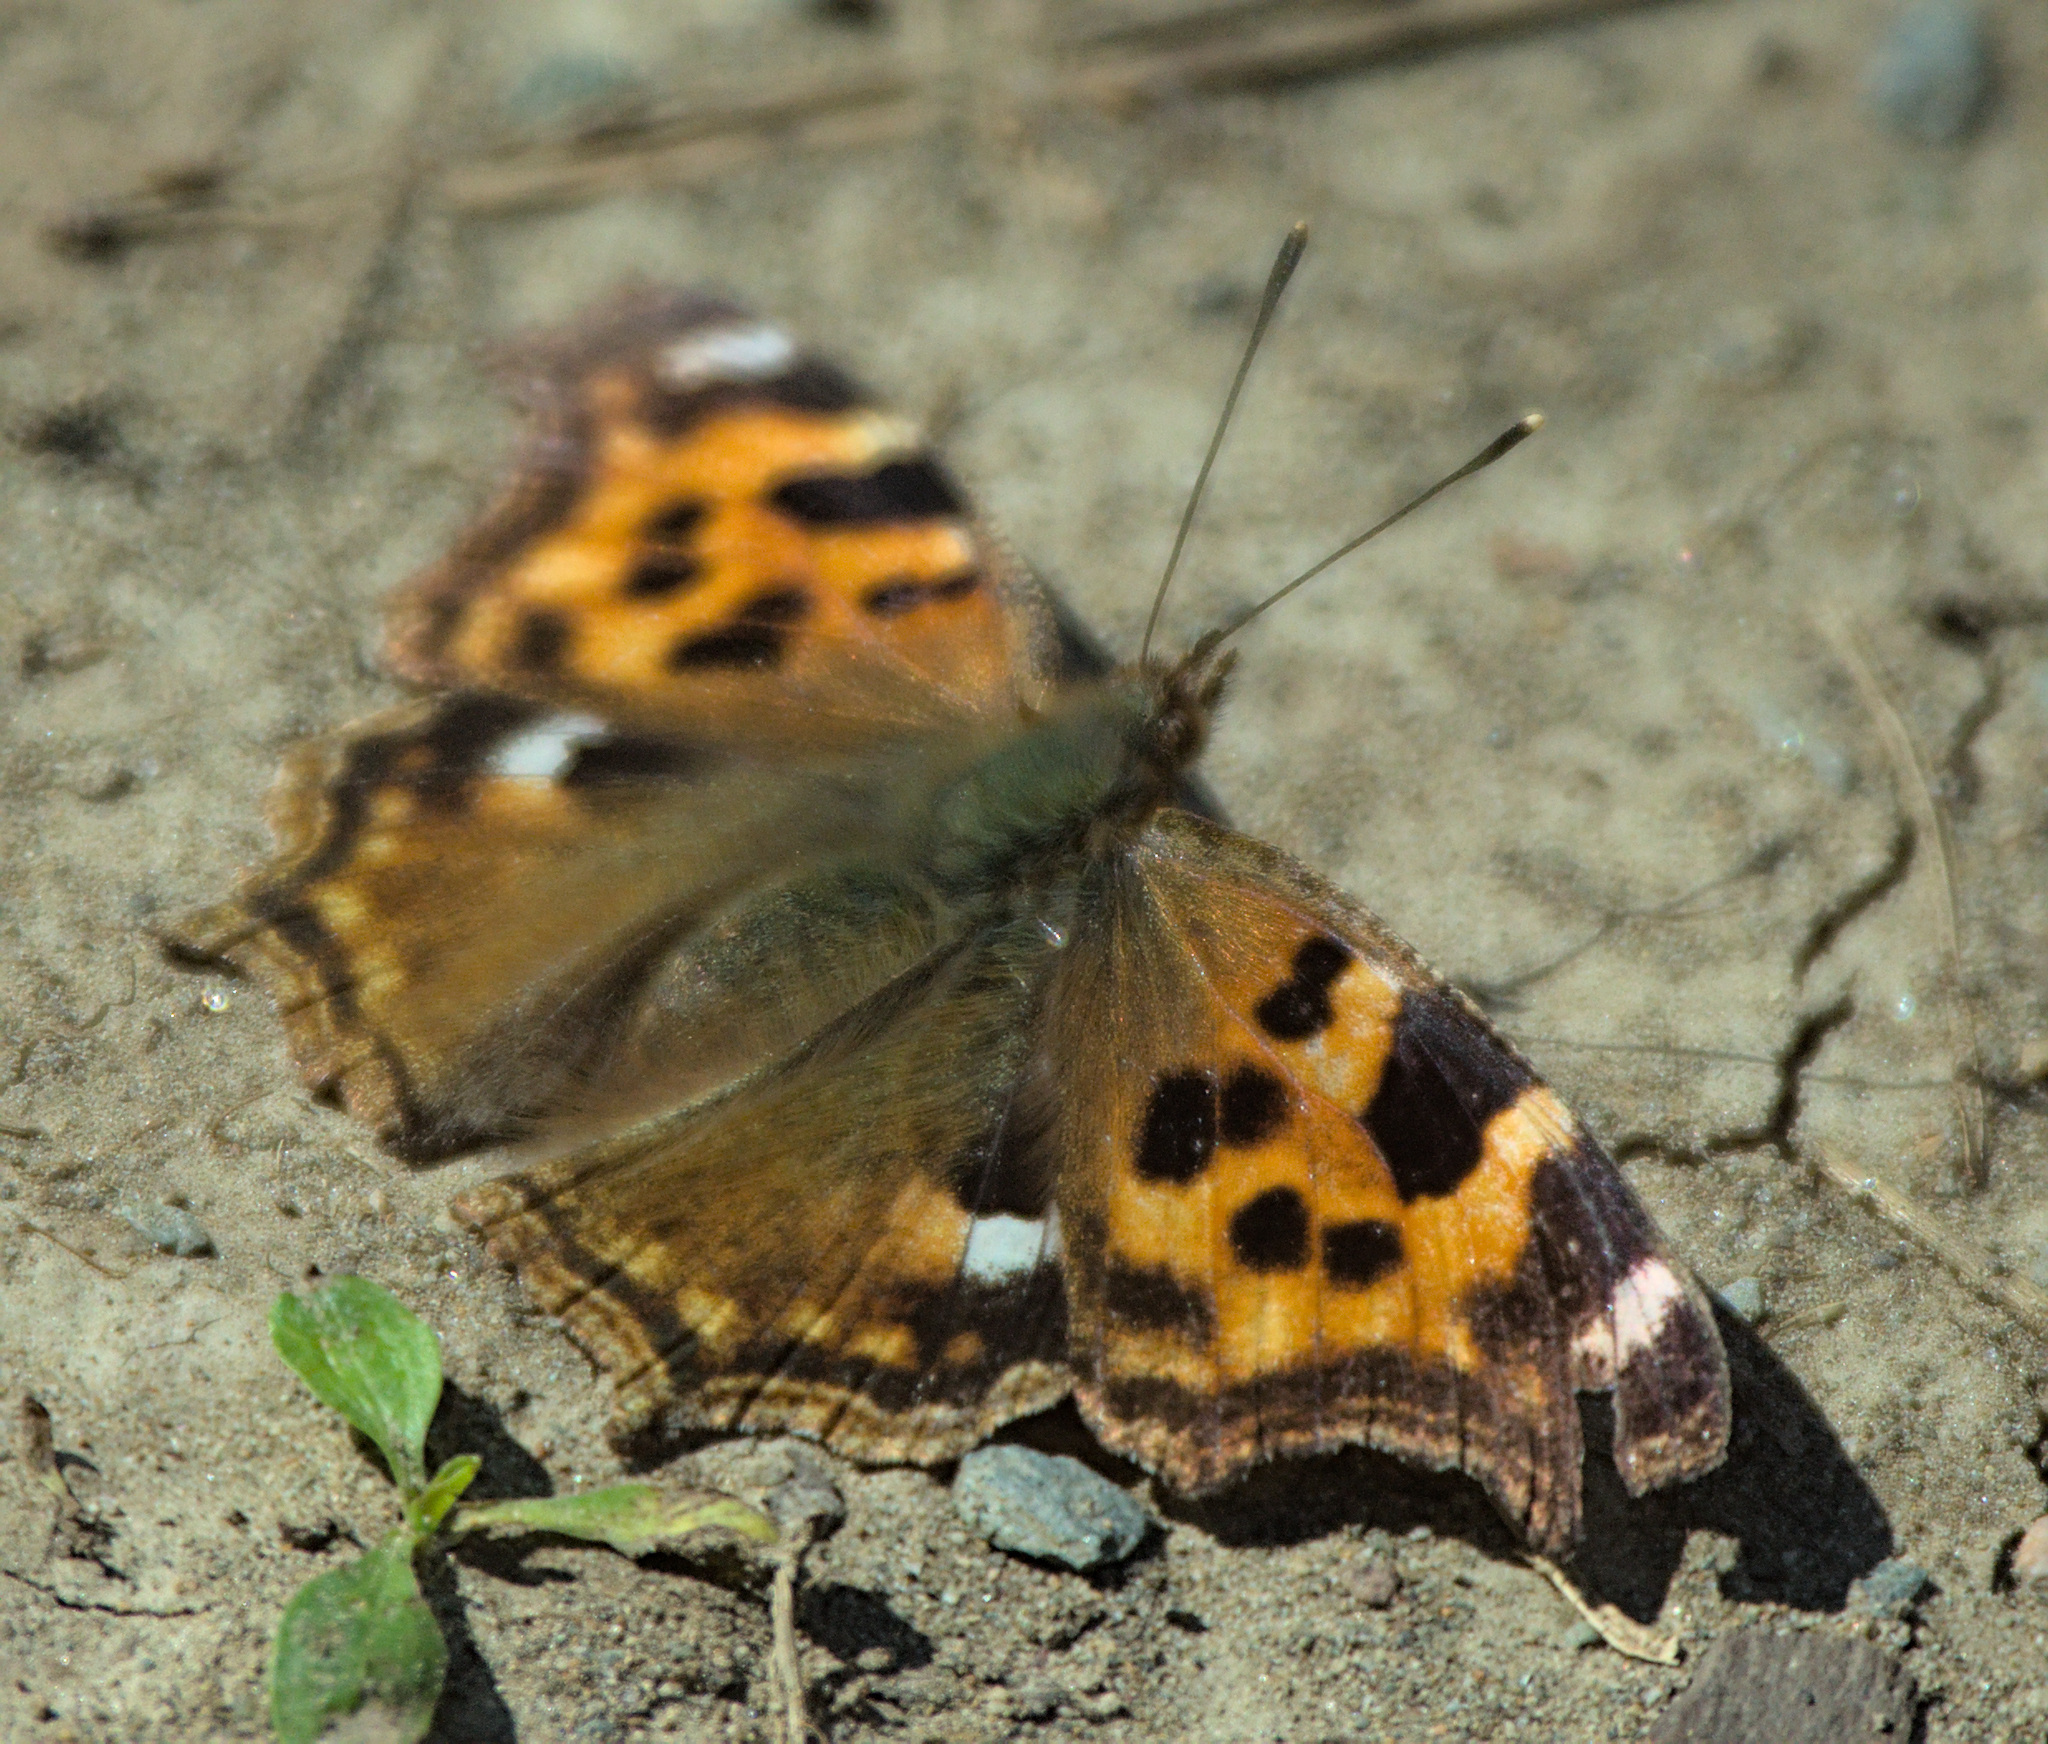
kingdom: Animalia
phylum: Arthropoda
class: Insecta
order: Lepidoptera
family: Nymphalidae
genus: Polygonia
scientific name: Polygonia vaualbum
